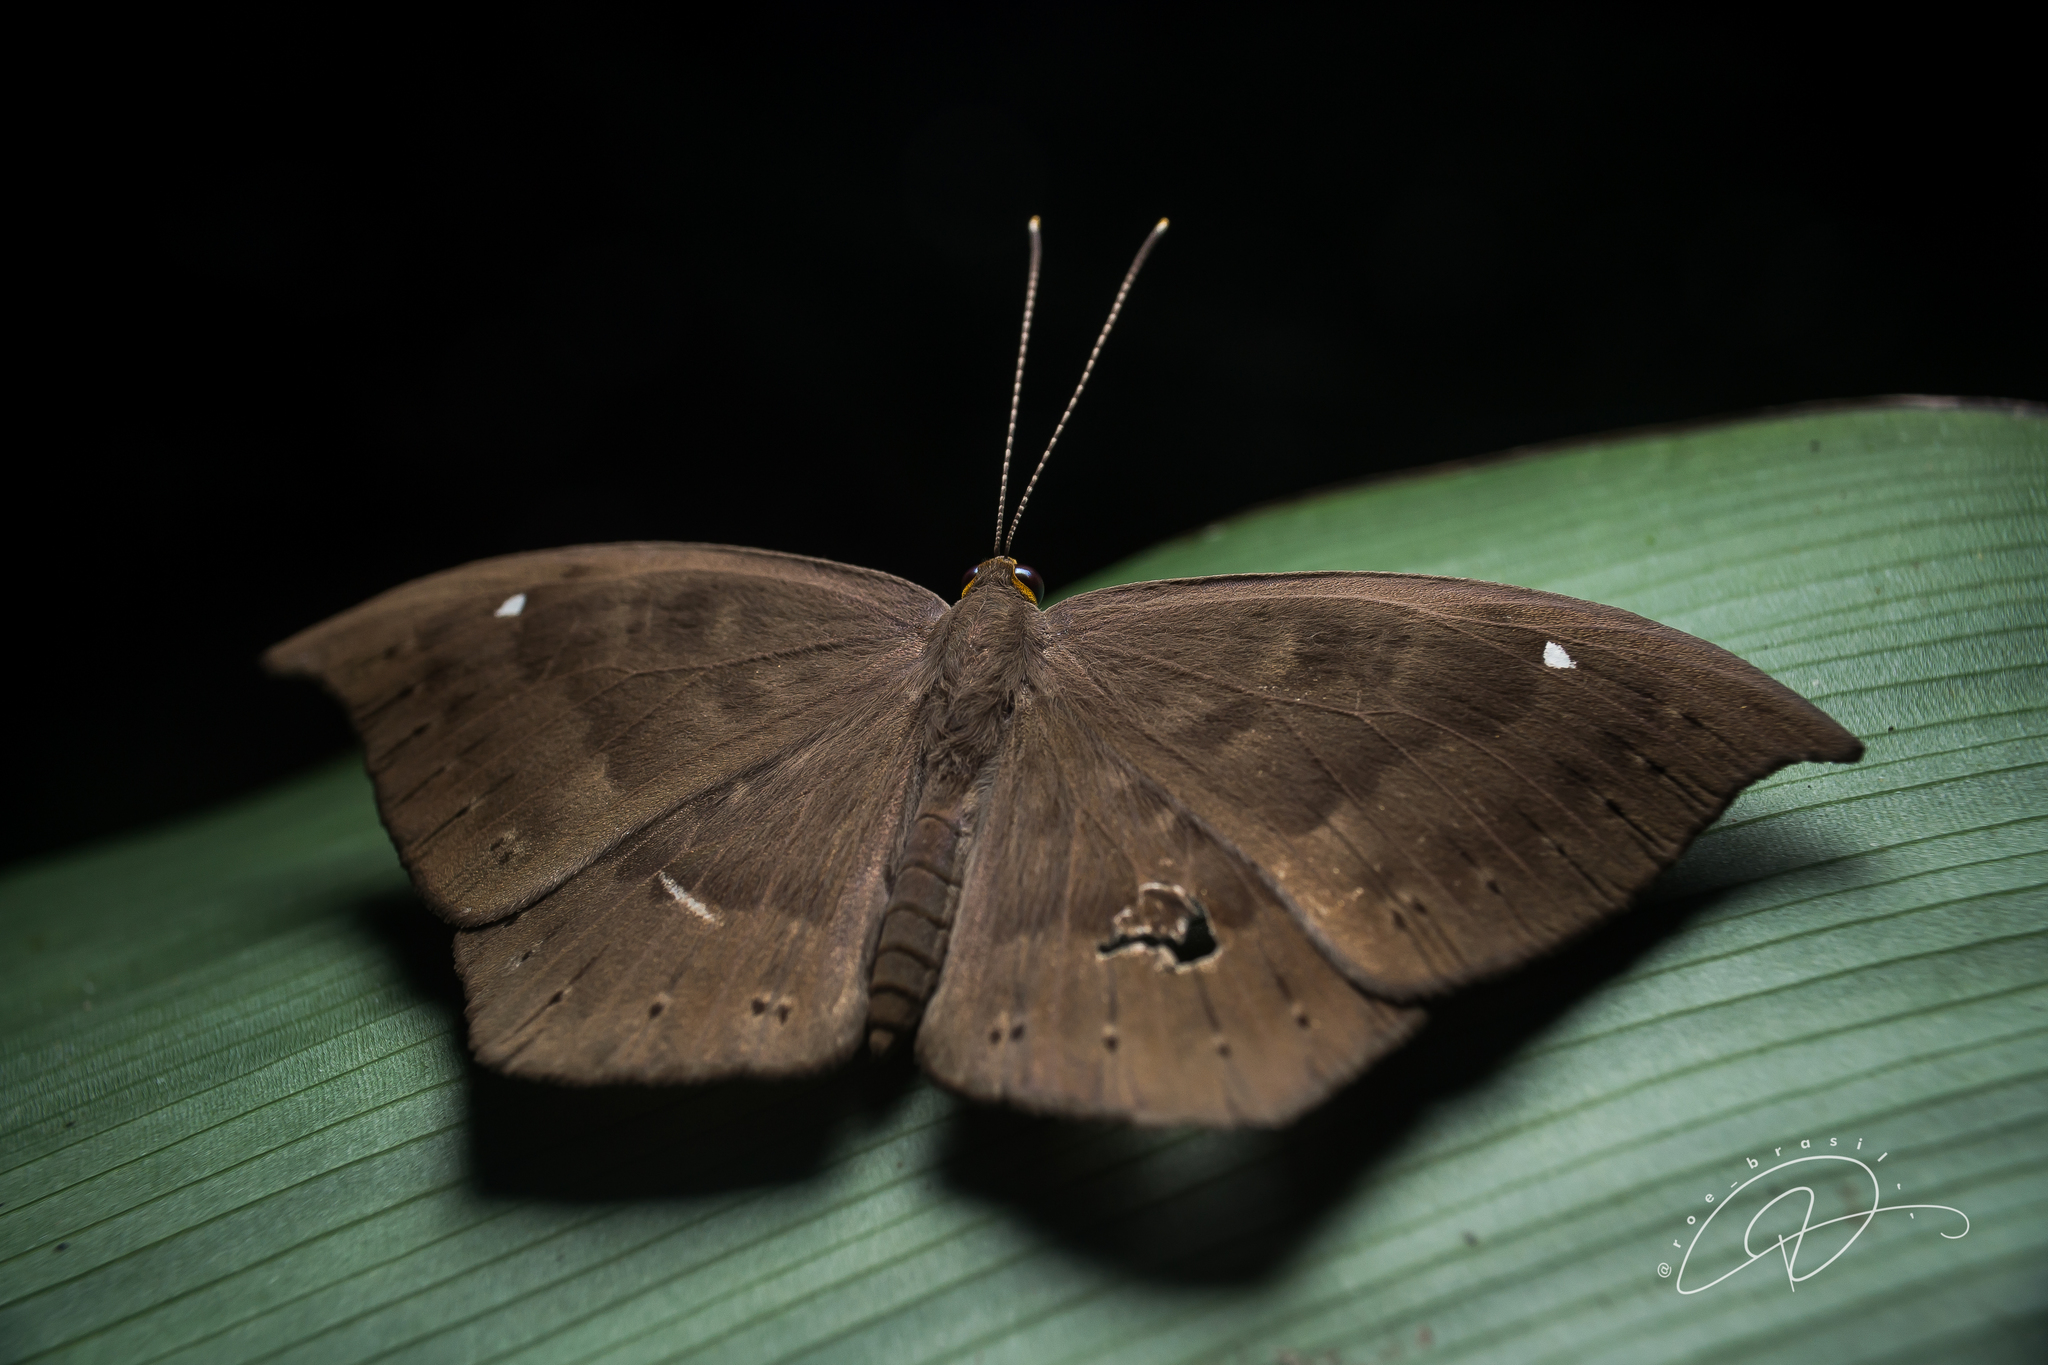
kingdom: Animalia
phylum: Cnidaria
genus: Eurybia
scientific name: Eurybia pergaea
